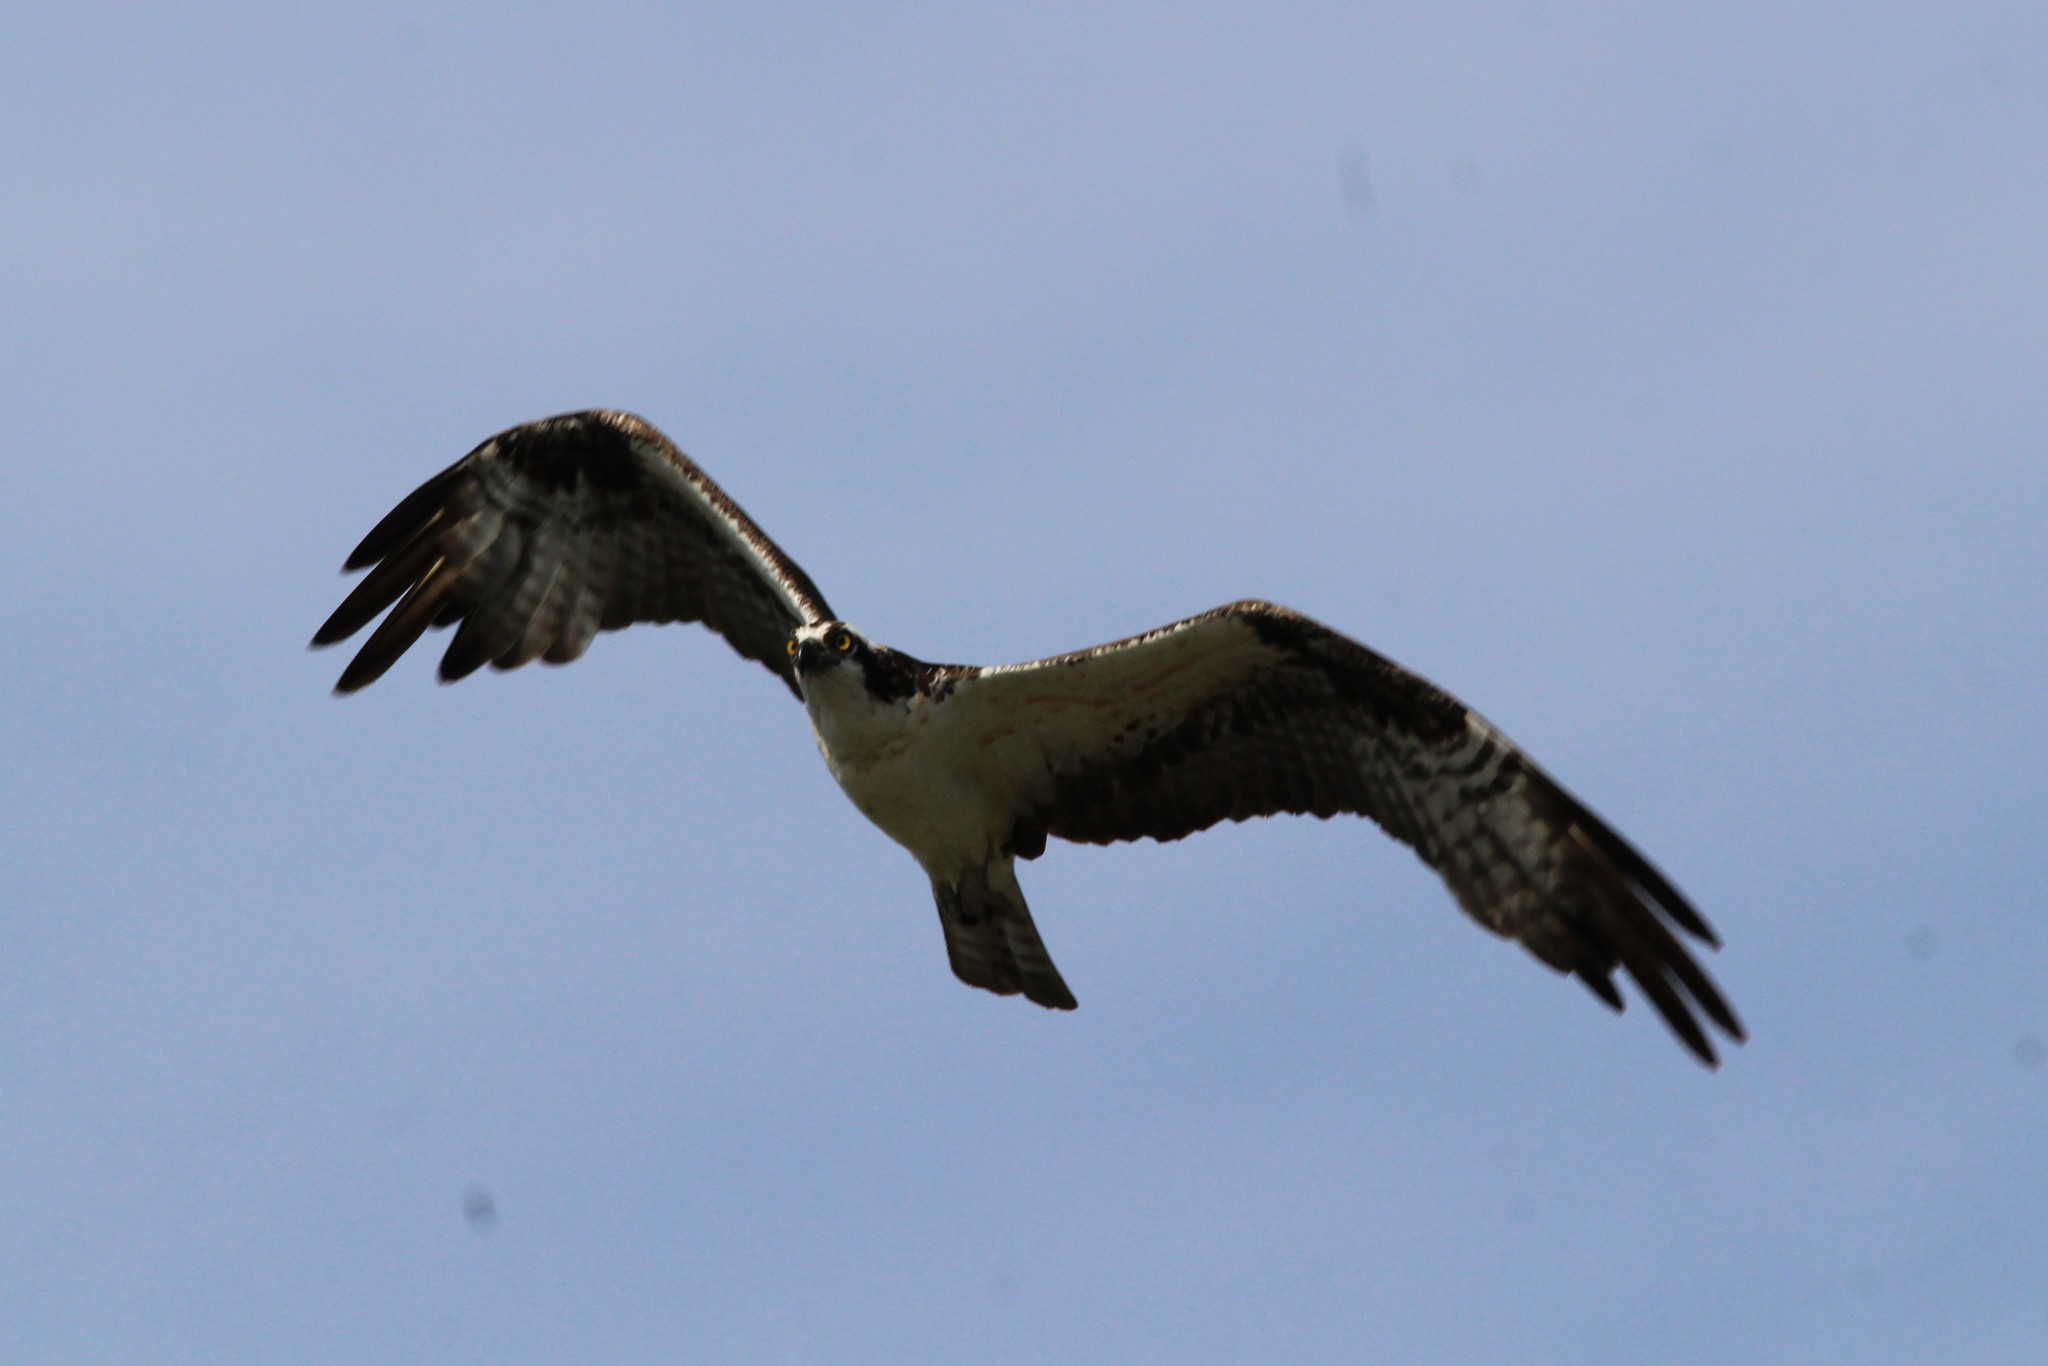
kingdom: Animalia
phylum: Chordata
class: Aves
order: Accipitriformes
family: Pandionidae
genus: Pandion
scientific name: Pandion haliaetus
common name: Osprey
